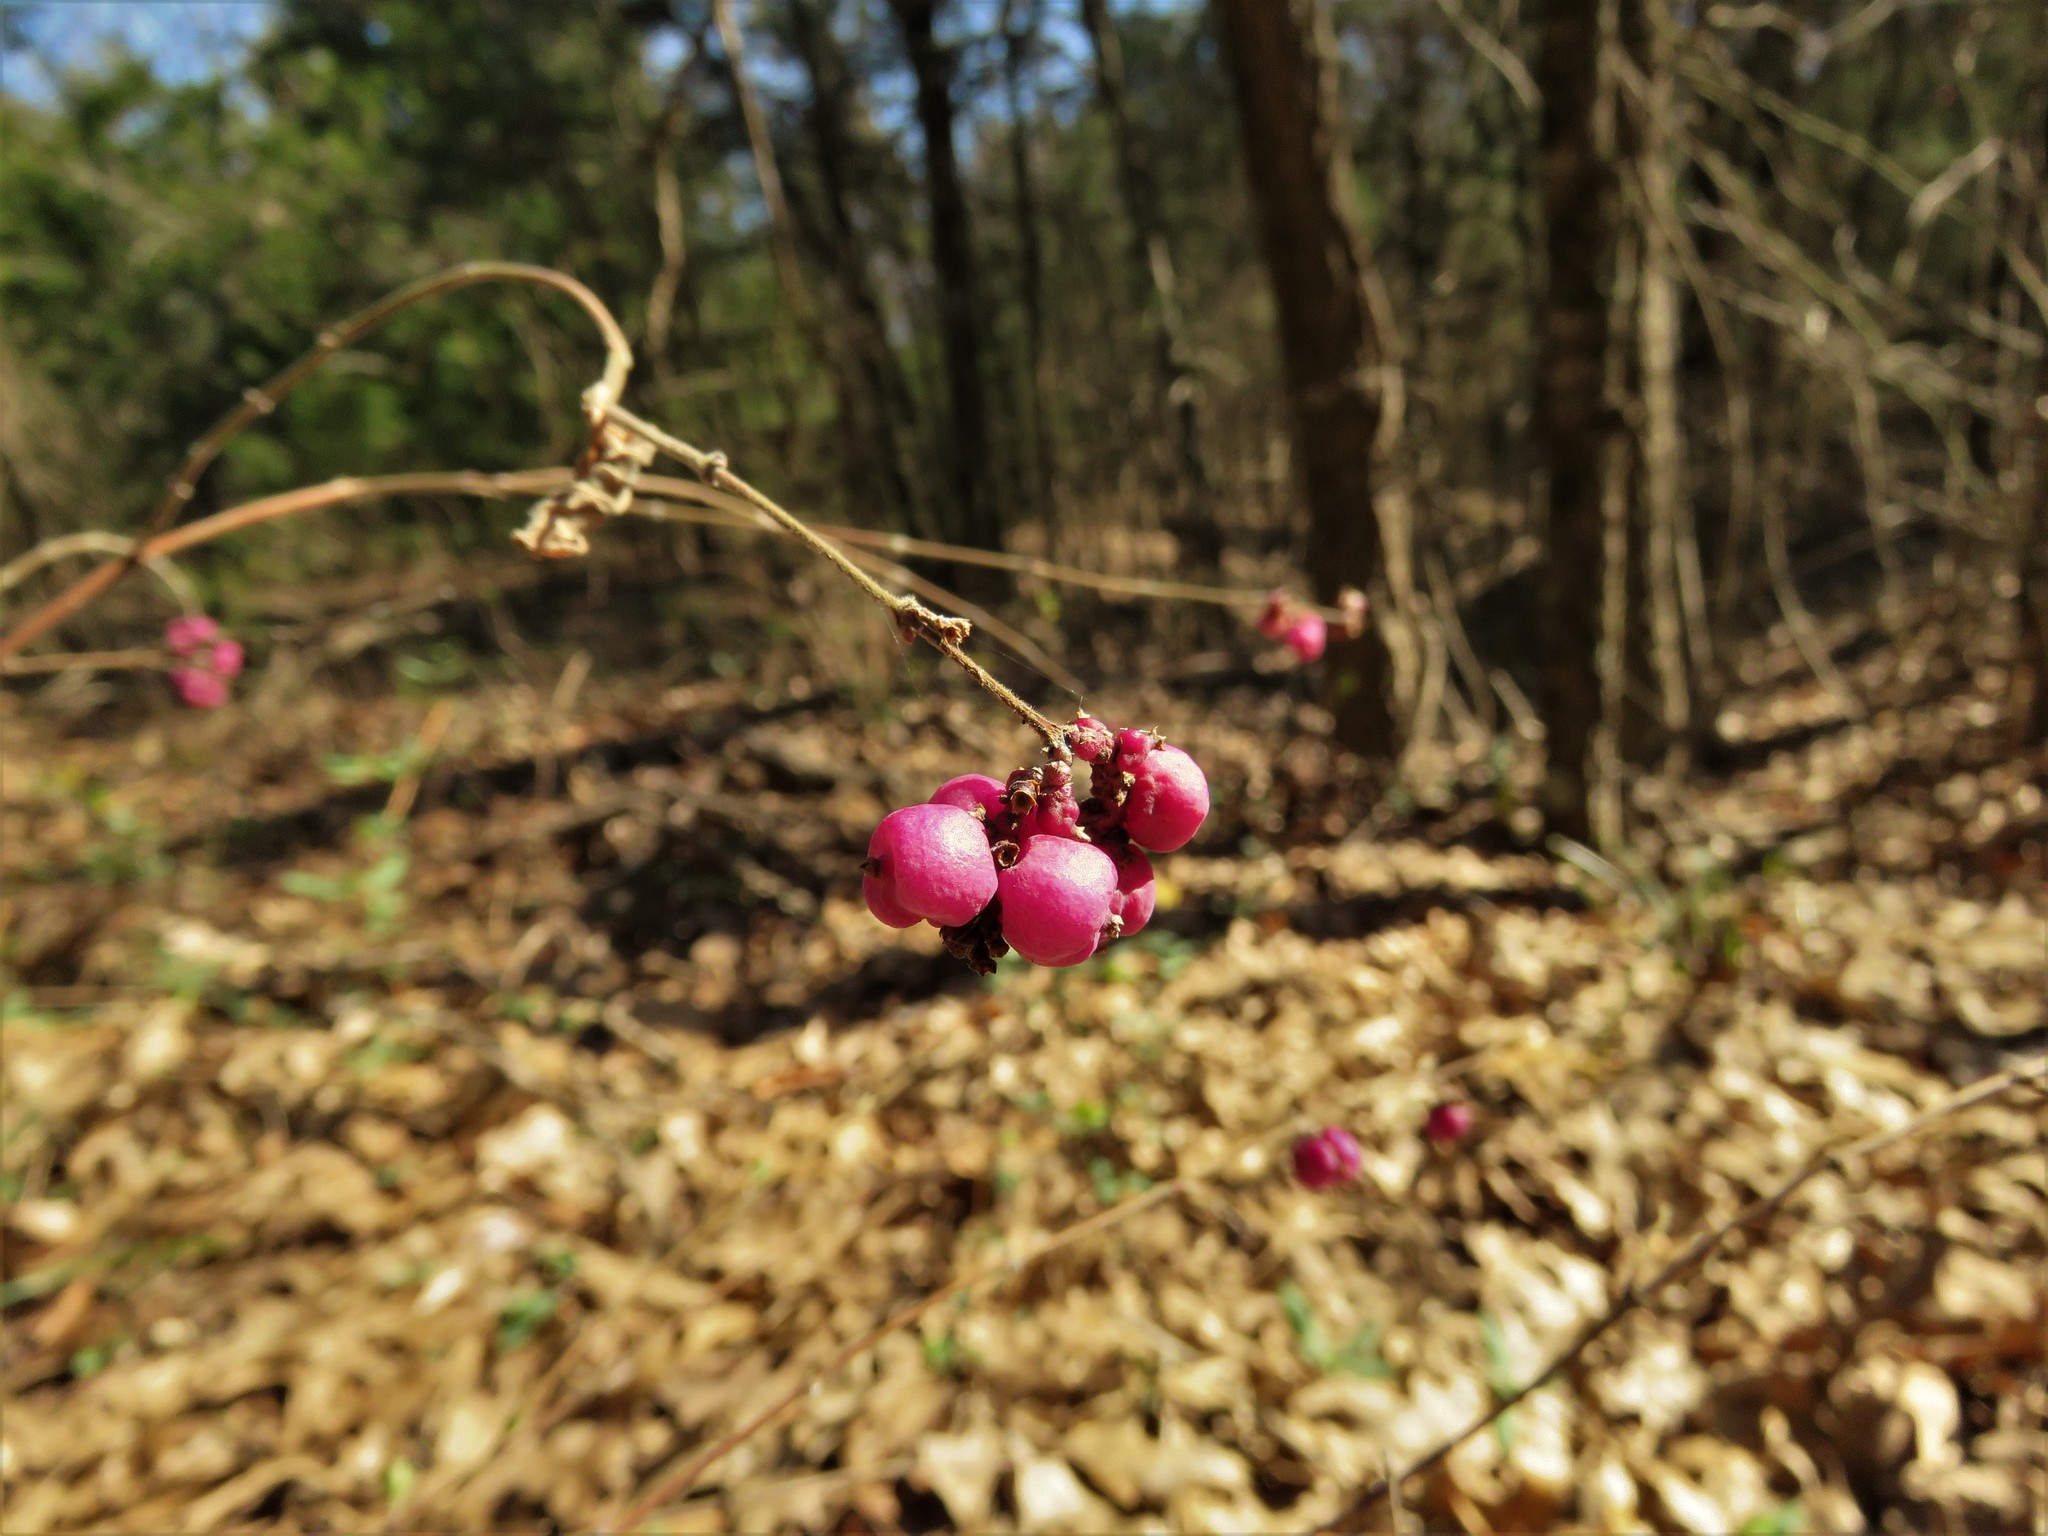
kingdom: Plantae
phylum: Tracheophyta
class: Magnoliopsida
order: Dipsacales
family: Caprifoliaceae
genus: Symphoricarpos
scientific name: Symphoricarpos orbiculatus
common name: Coralberry
